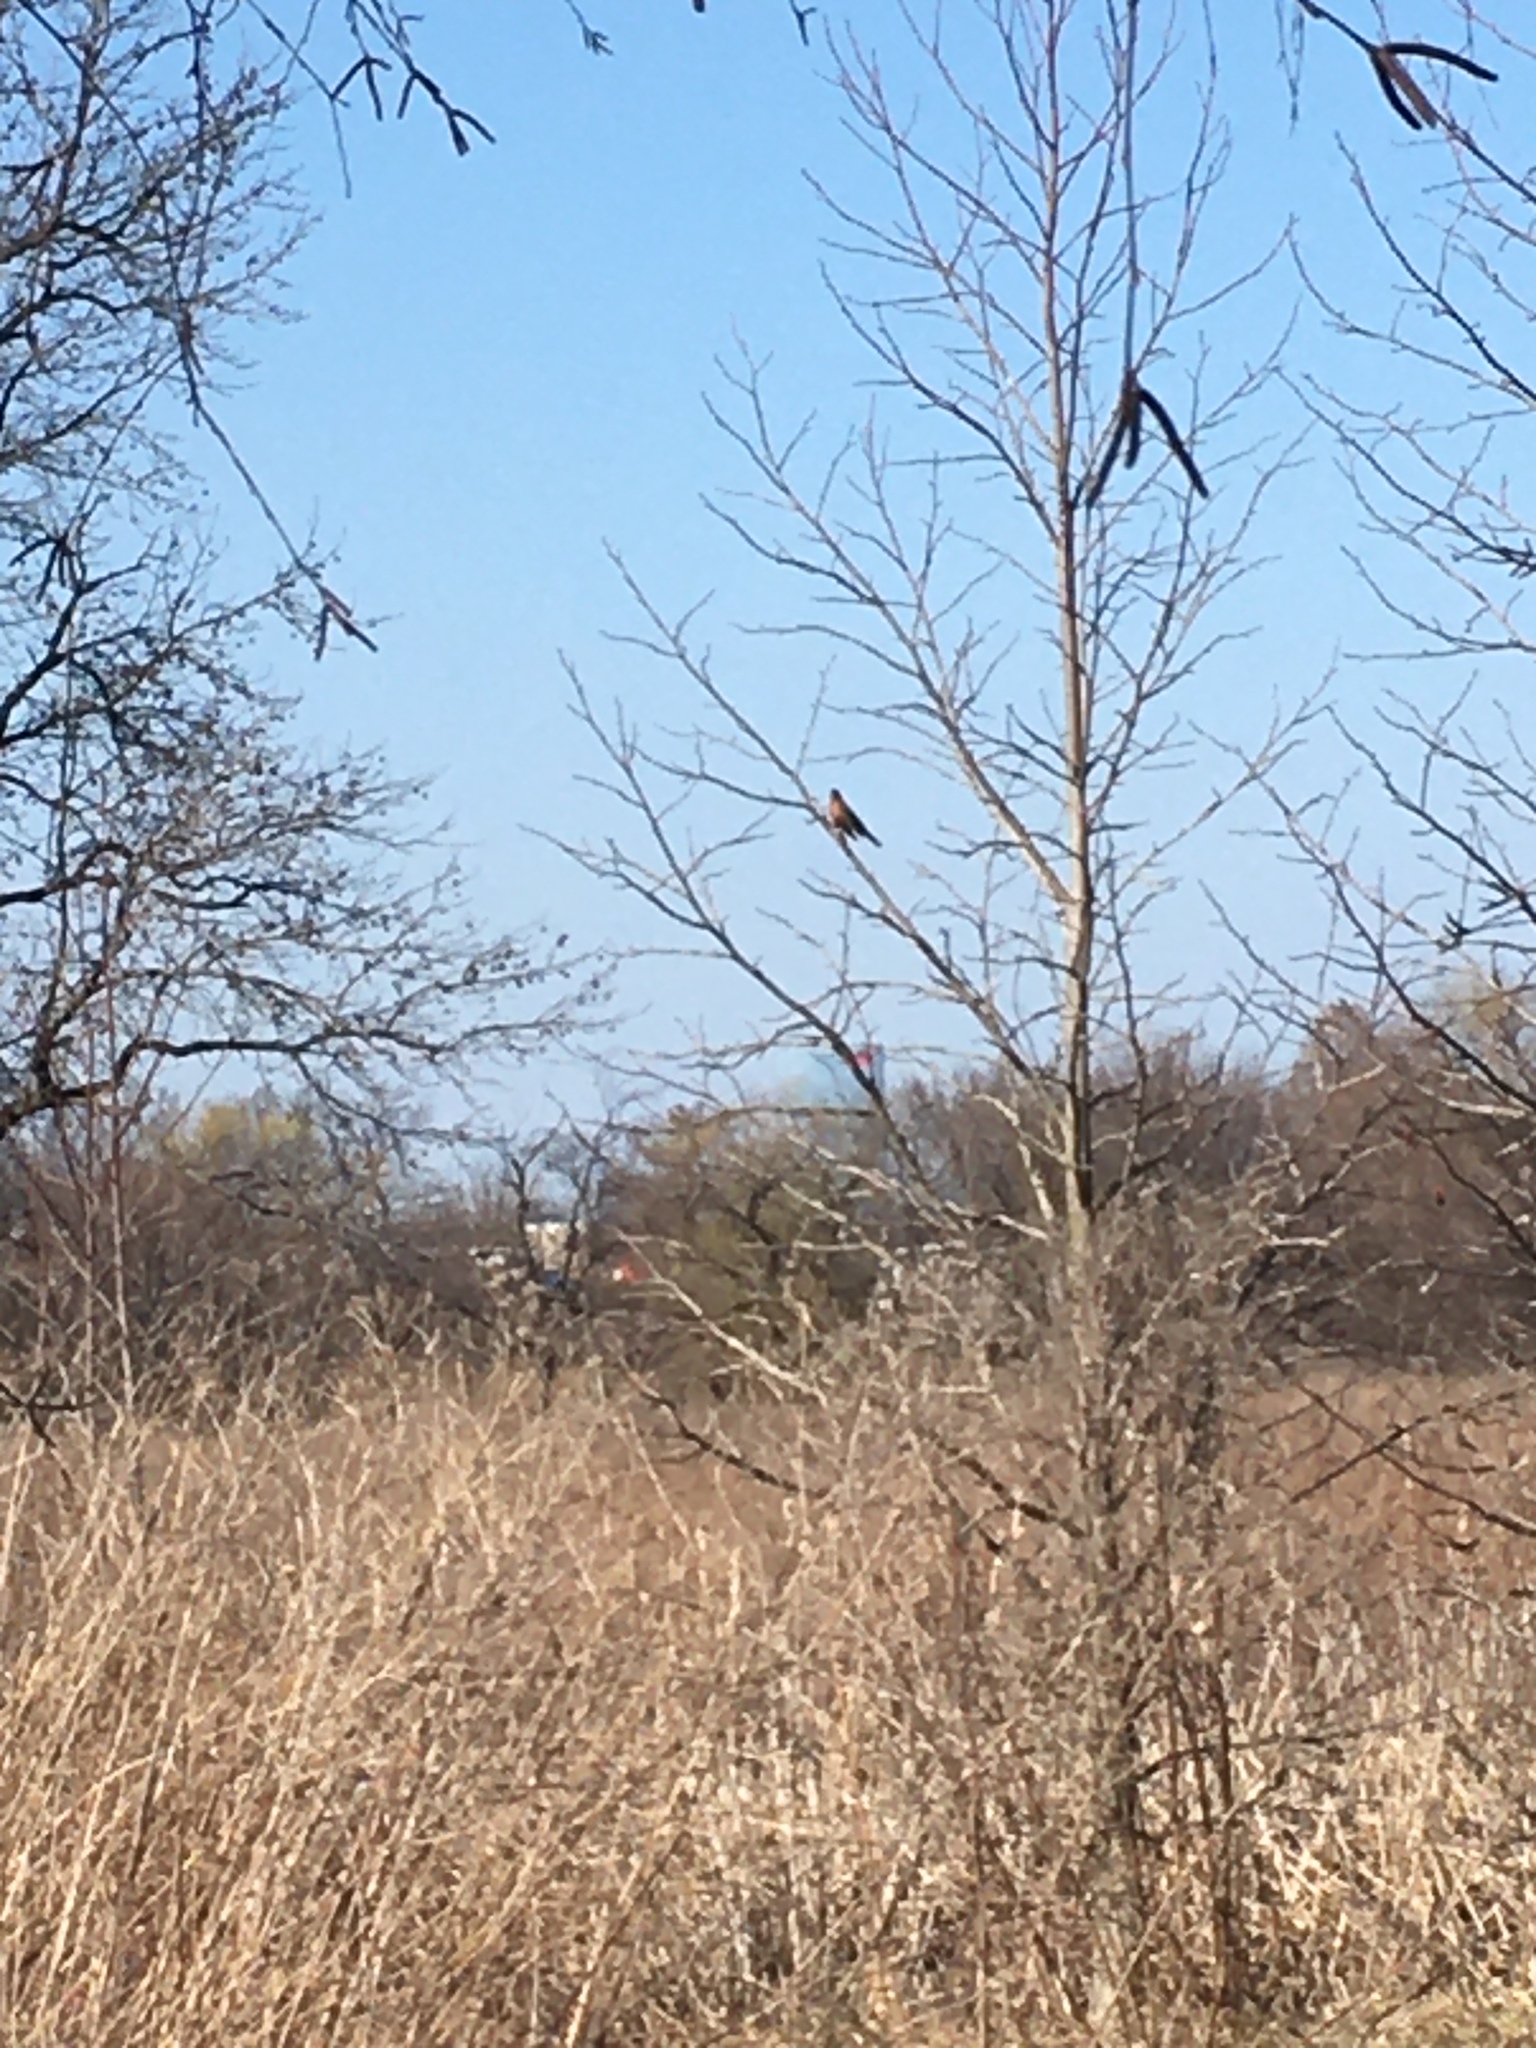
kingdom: Animalia
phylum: Chordata
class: Aves
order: Passeriformes
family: Turdidae
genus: Turdus
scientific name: Turdus migratorius
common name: American robin
